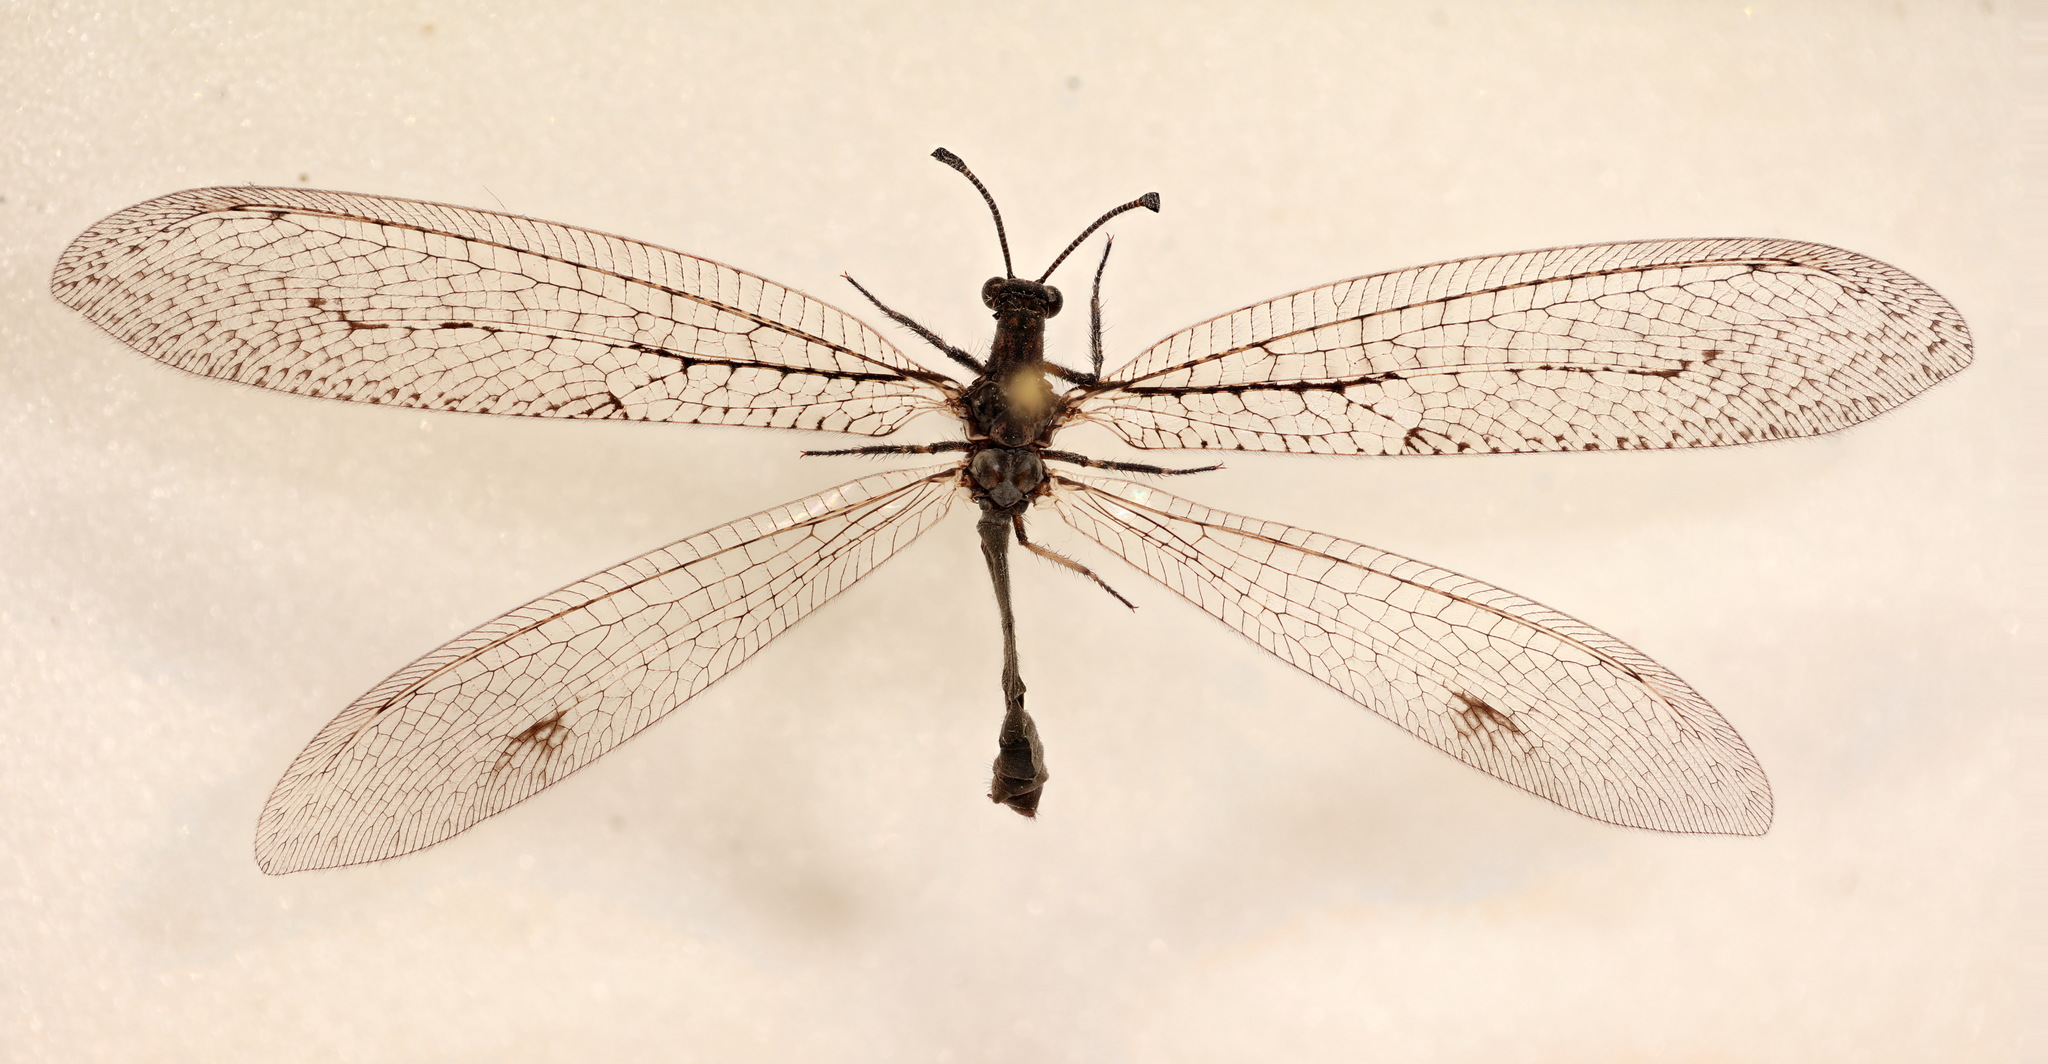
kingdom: Animalia
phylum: Arthropoda
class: Insecta
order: Neuroptera
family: Myrmeleontidae
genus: Glenoleon
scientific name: Glenoleon rudda
